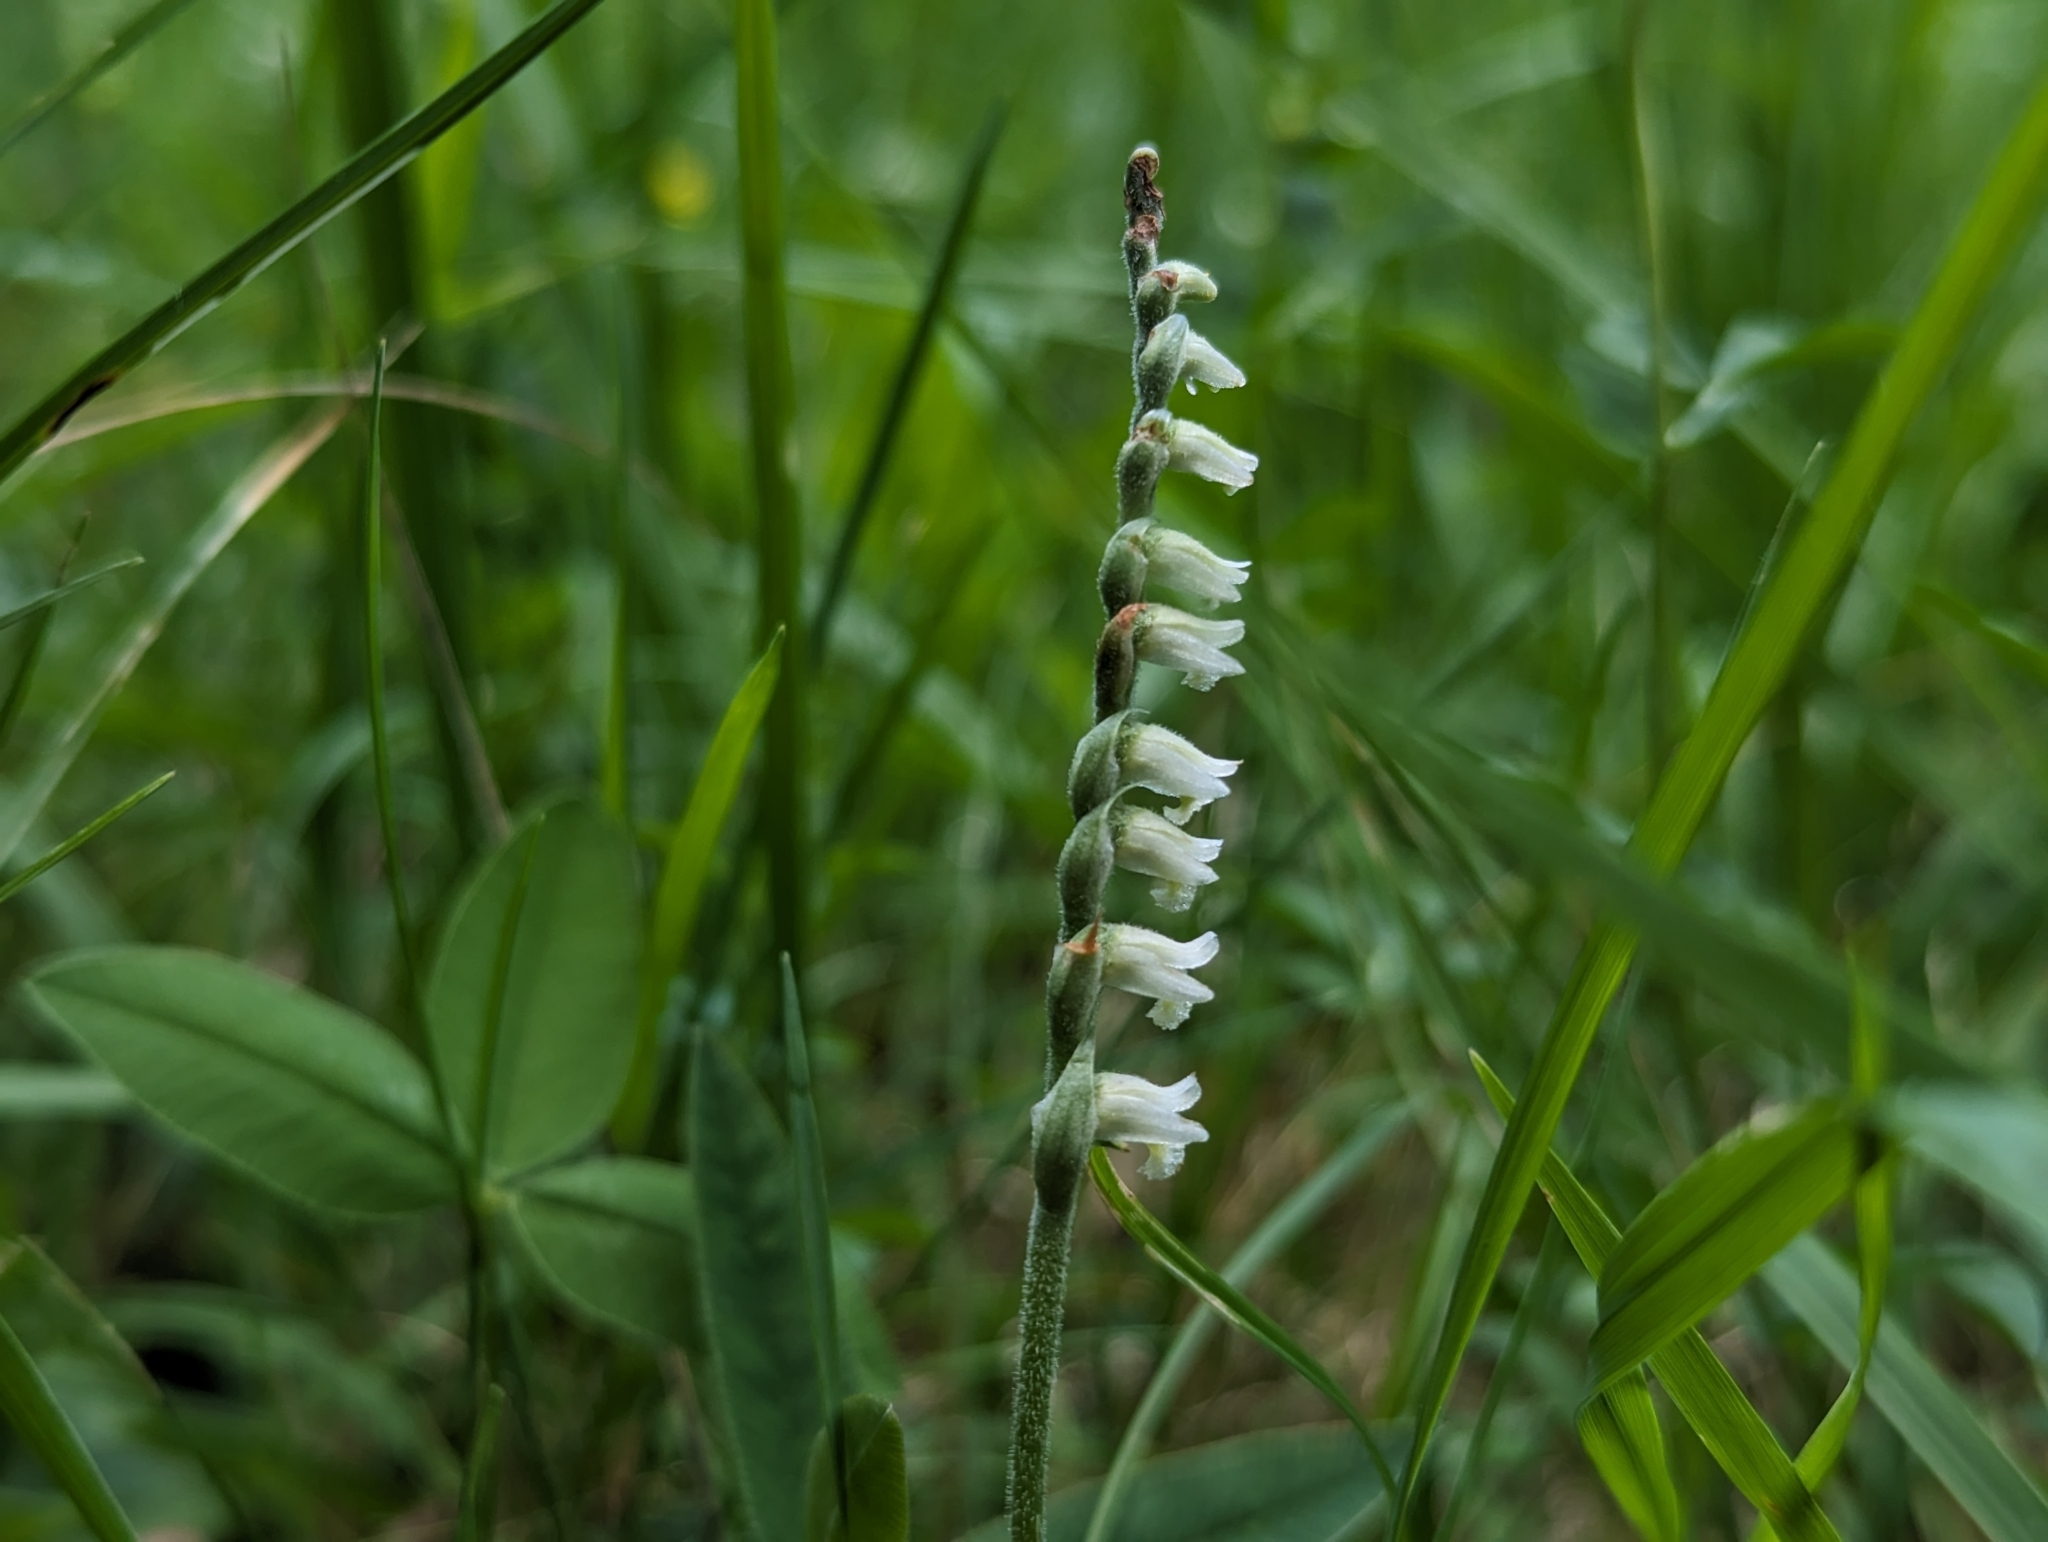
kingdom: Plantae
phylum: Tracheophyta
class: Liliopsida
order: Asparagales
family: Orchidaceae
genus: Spiranthes
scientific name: Spiranthes spiralis
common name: Autumn lady's-tresses
